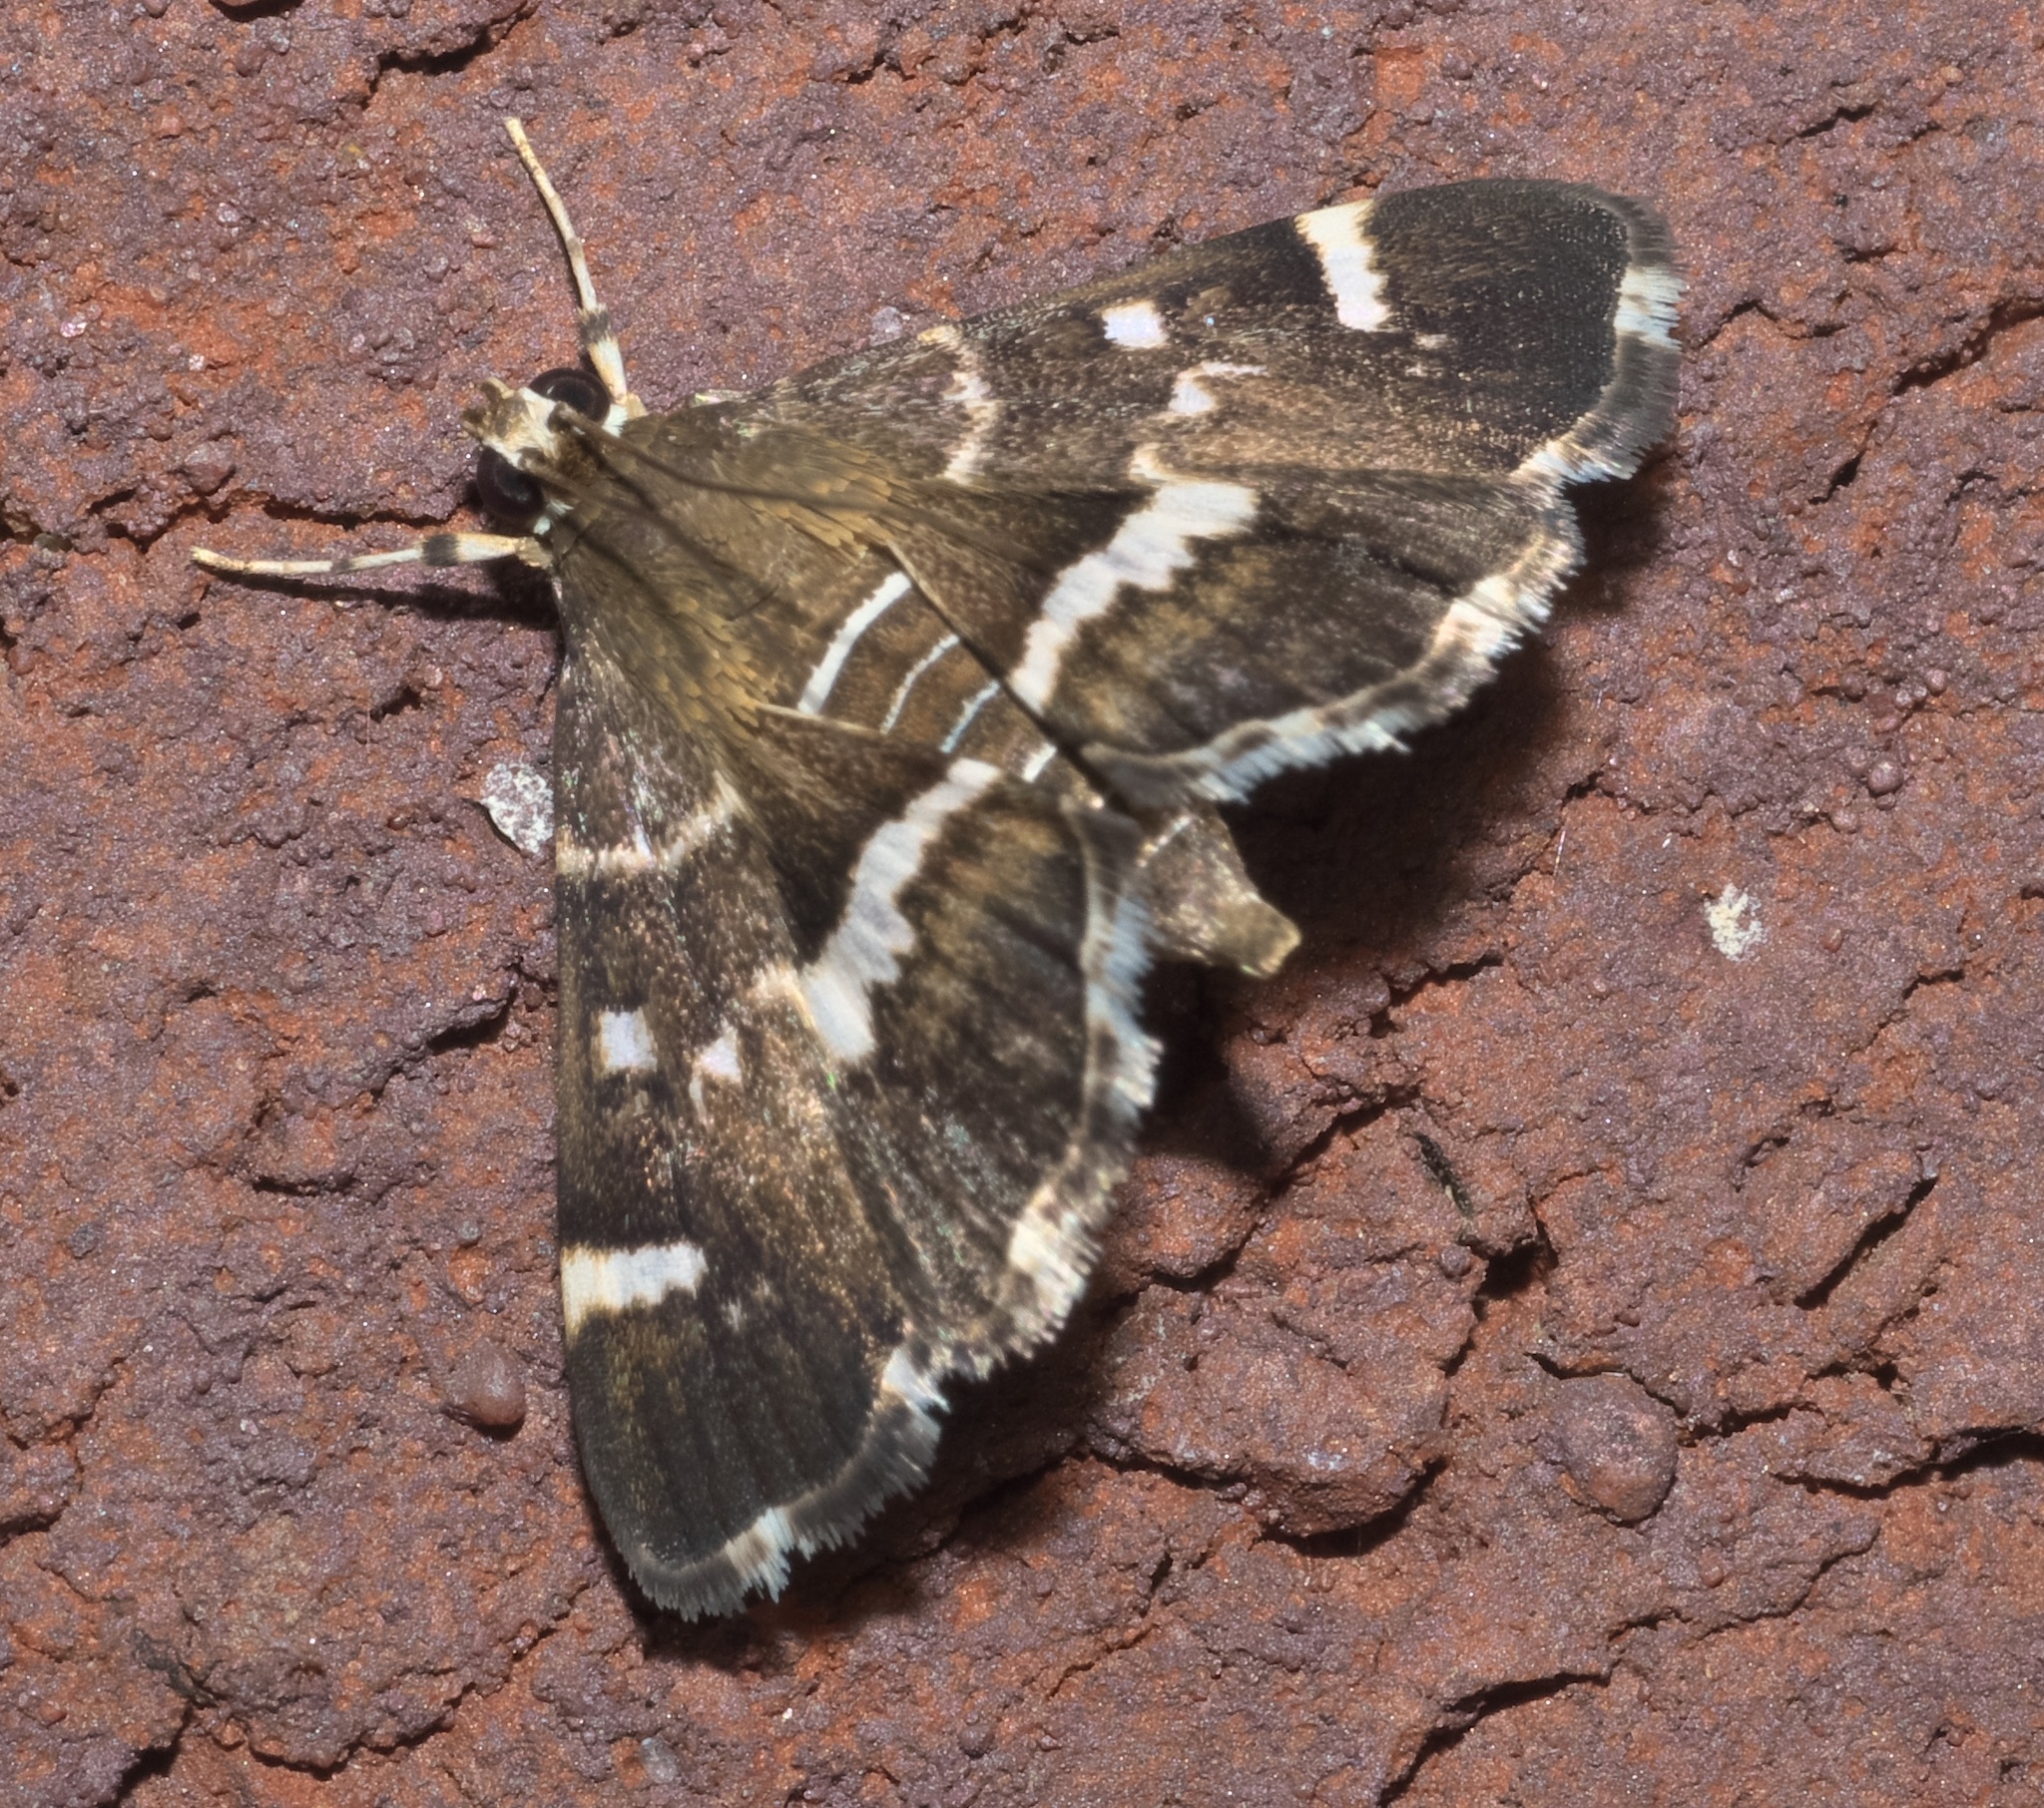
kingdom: Animalia
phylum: Arthropoda
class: Insecta
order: Lepidoptera
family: Crambidae
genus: Hymenia
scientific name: Hymenia perspectalis
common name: Spotted beet webworm
